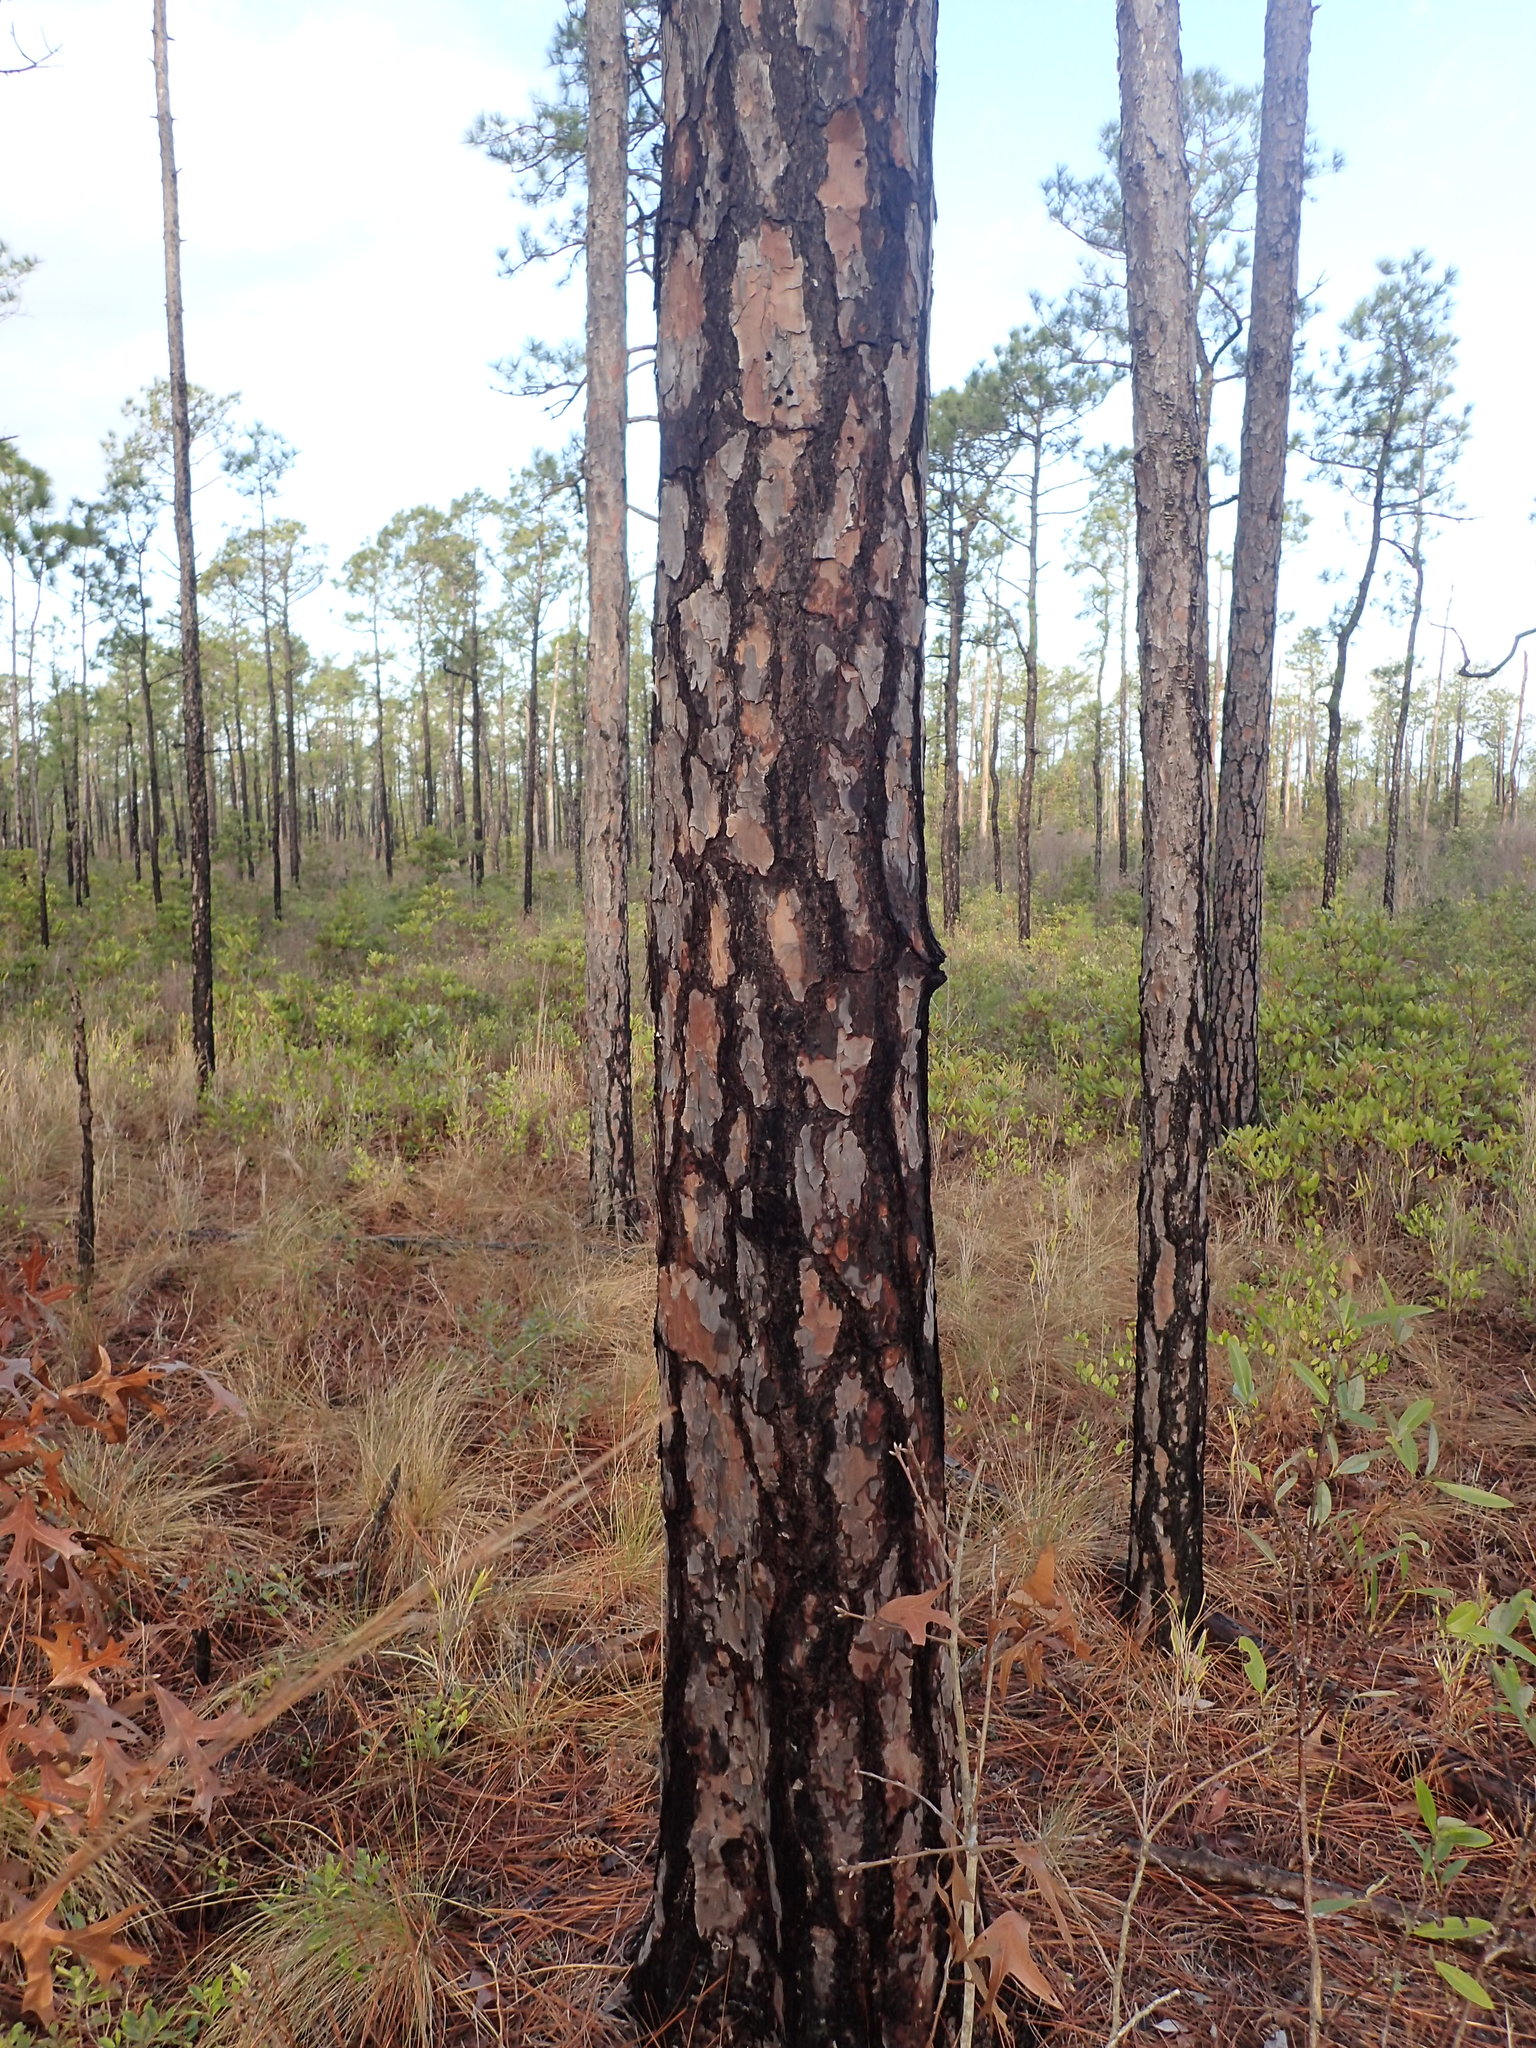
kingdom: Plantae
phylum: Tracheophyta
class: Pinopsida
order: Pinales
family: Pinaceae
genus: Pinus
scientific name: Pinus palustris
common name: Longleaf pine
